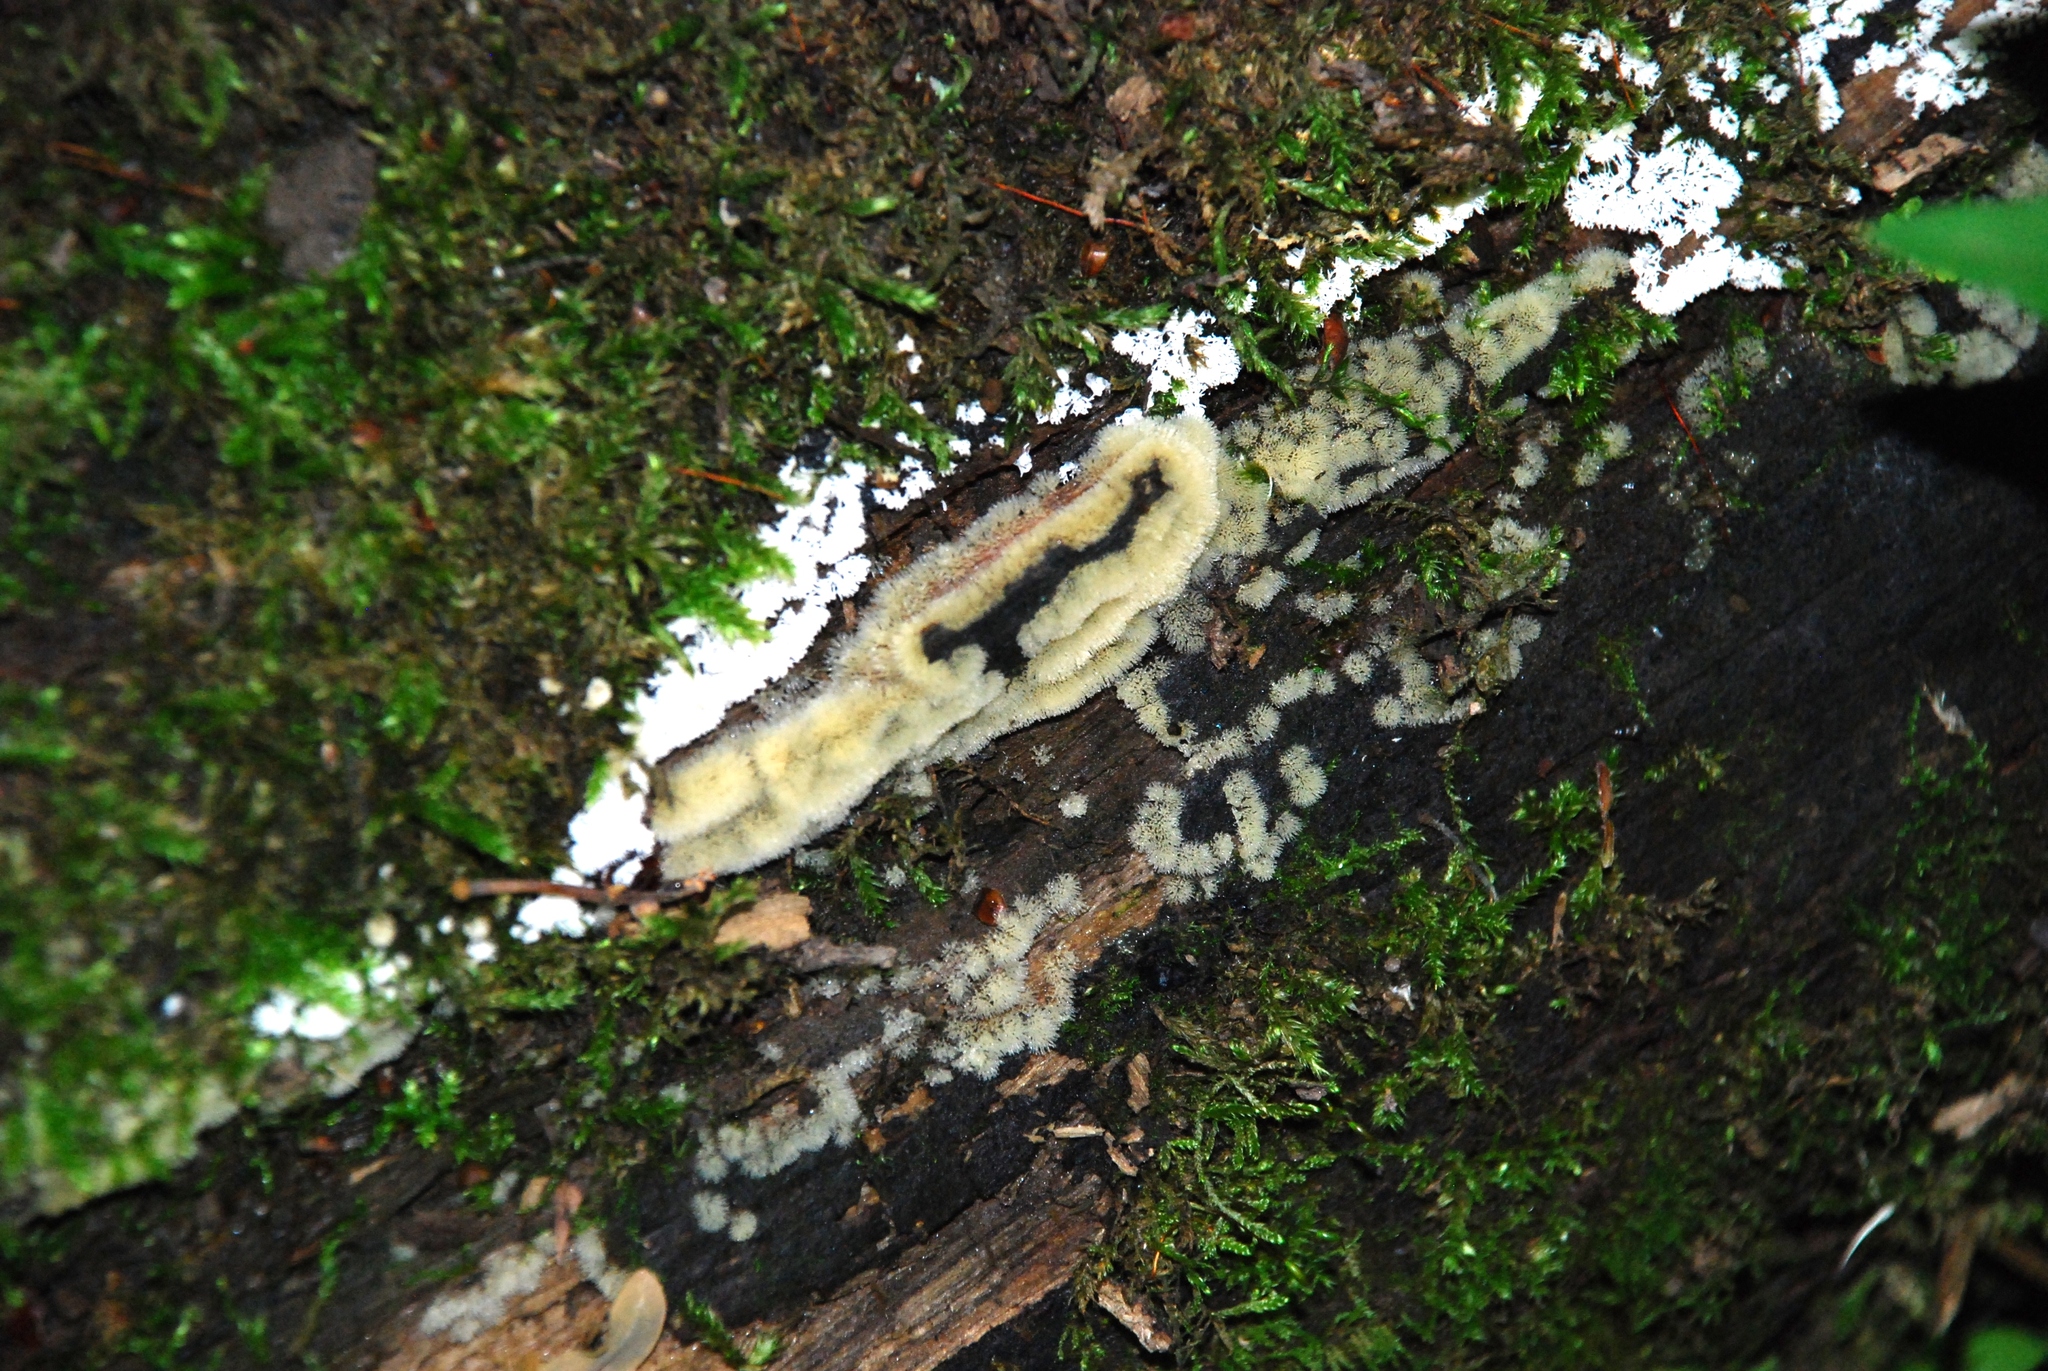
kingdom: Protozoa
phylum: Mycetozoa
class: Protosteliomycetes
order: Ceratiomyxales
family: Ceratiomyxaceae
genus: Ceratiomyxa
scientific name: Ceratiomyxa fruticulosa
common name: Honeycomb coral slime mold
